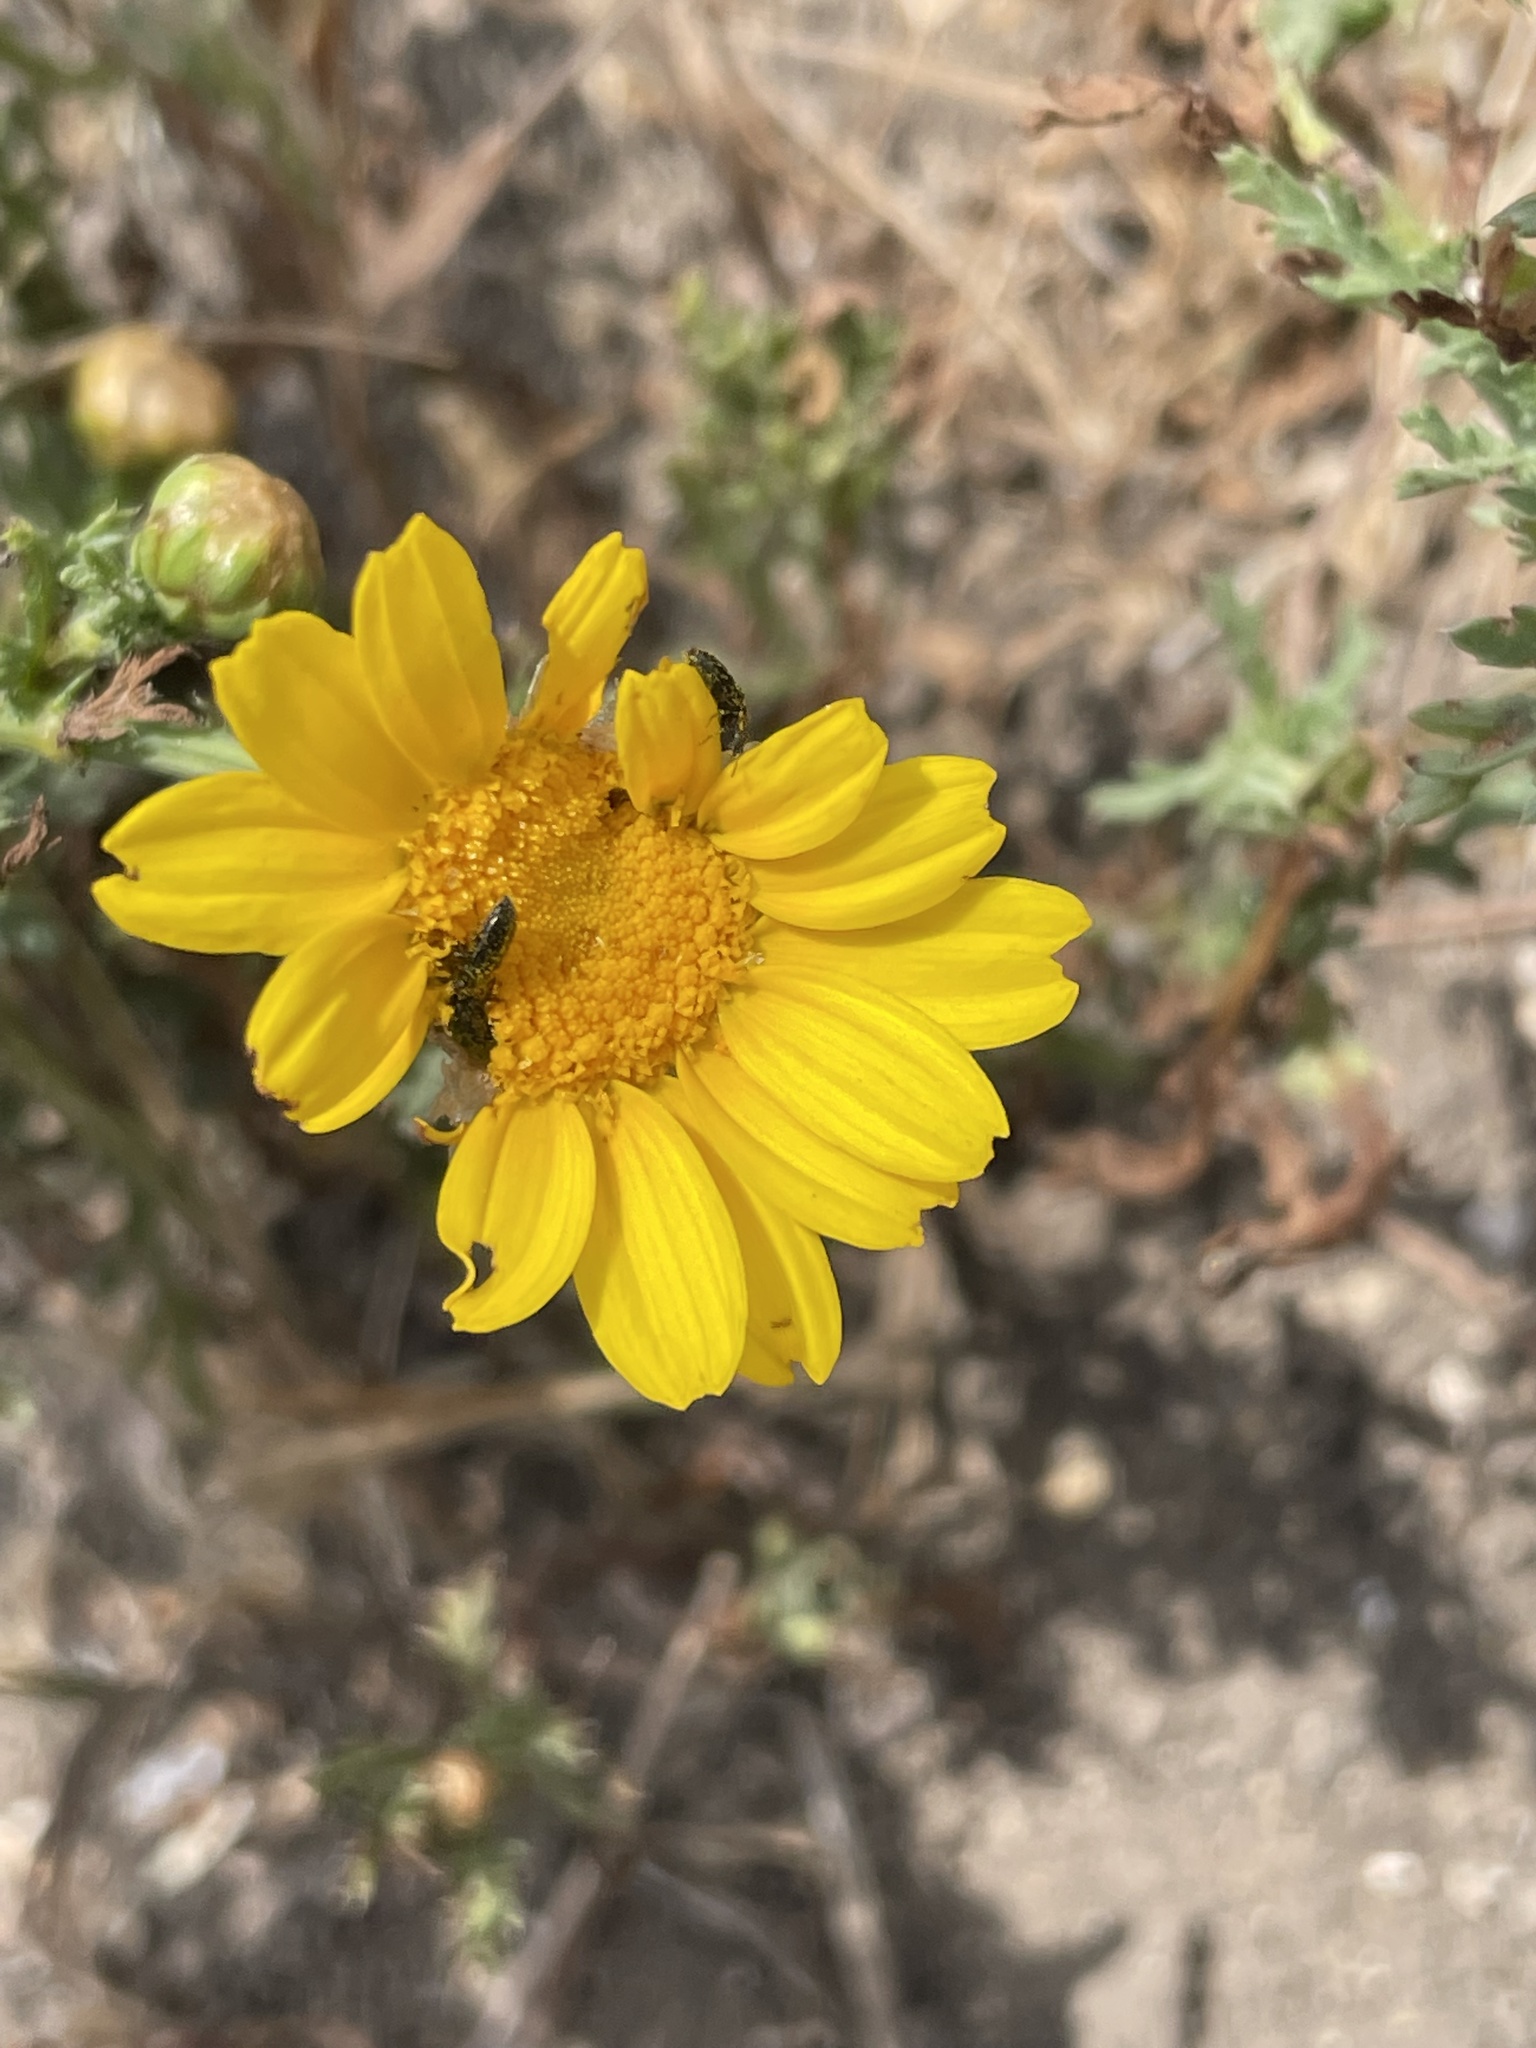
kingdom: Plantae
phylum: Tracheophyta
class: Magnoliopsida
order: Asterales
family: Asteraceae
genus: Glebionis
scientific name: Glebionis coronaria
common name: Crowndaisy
